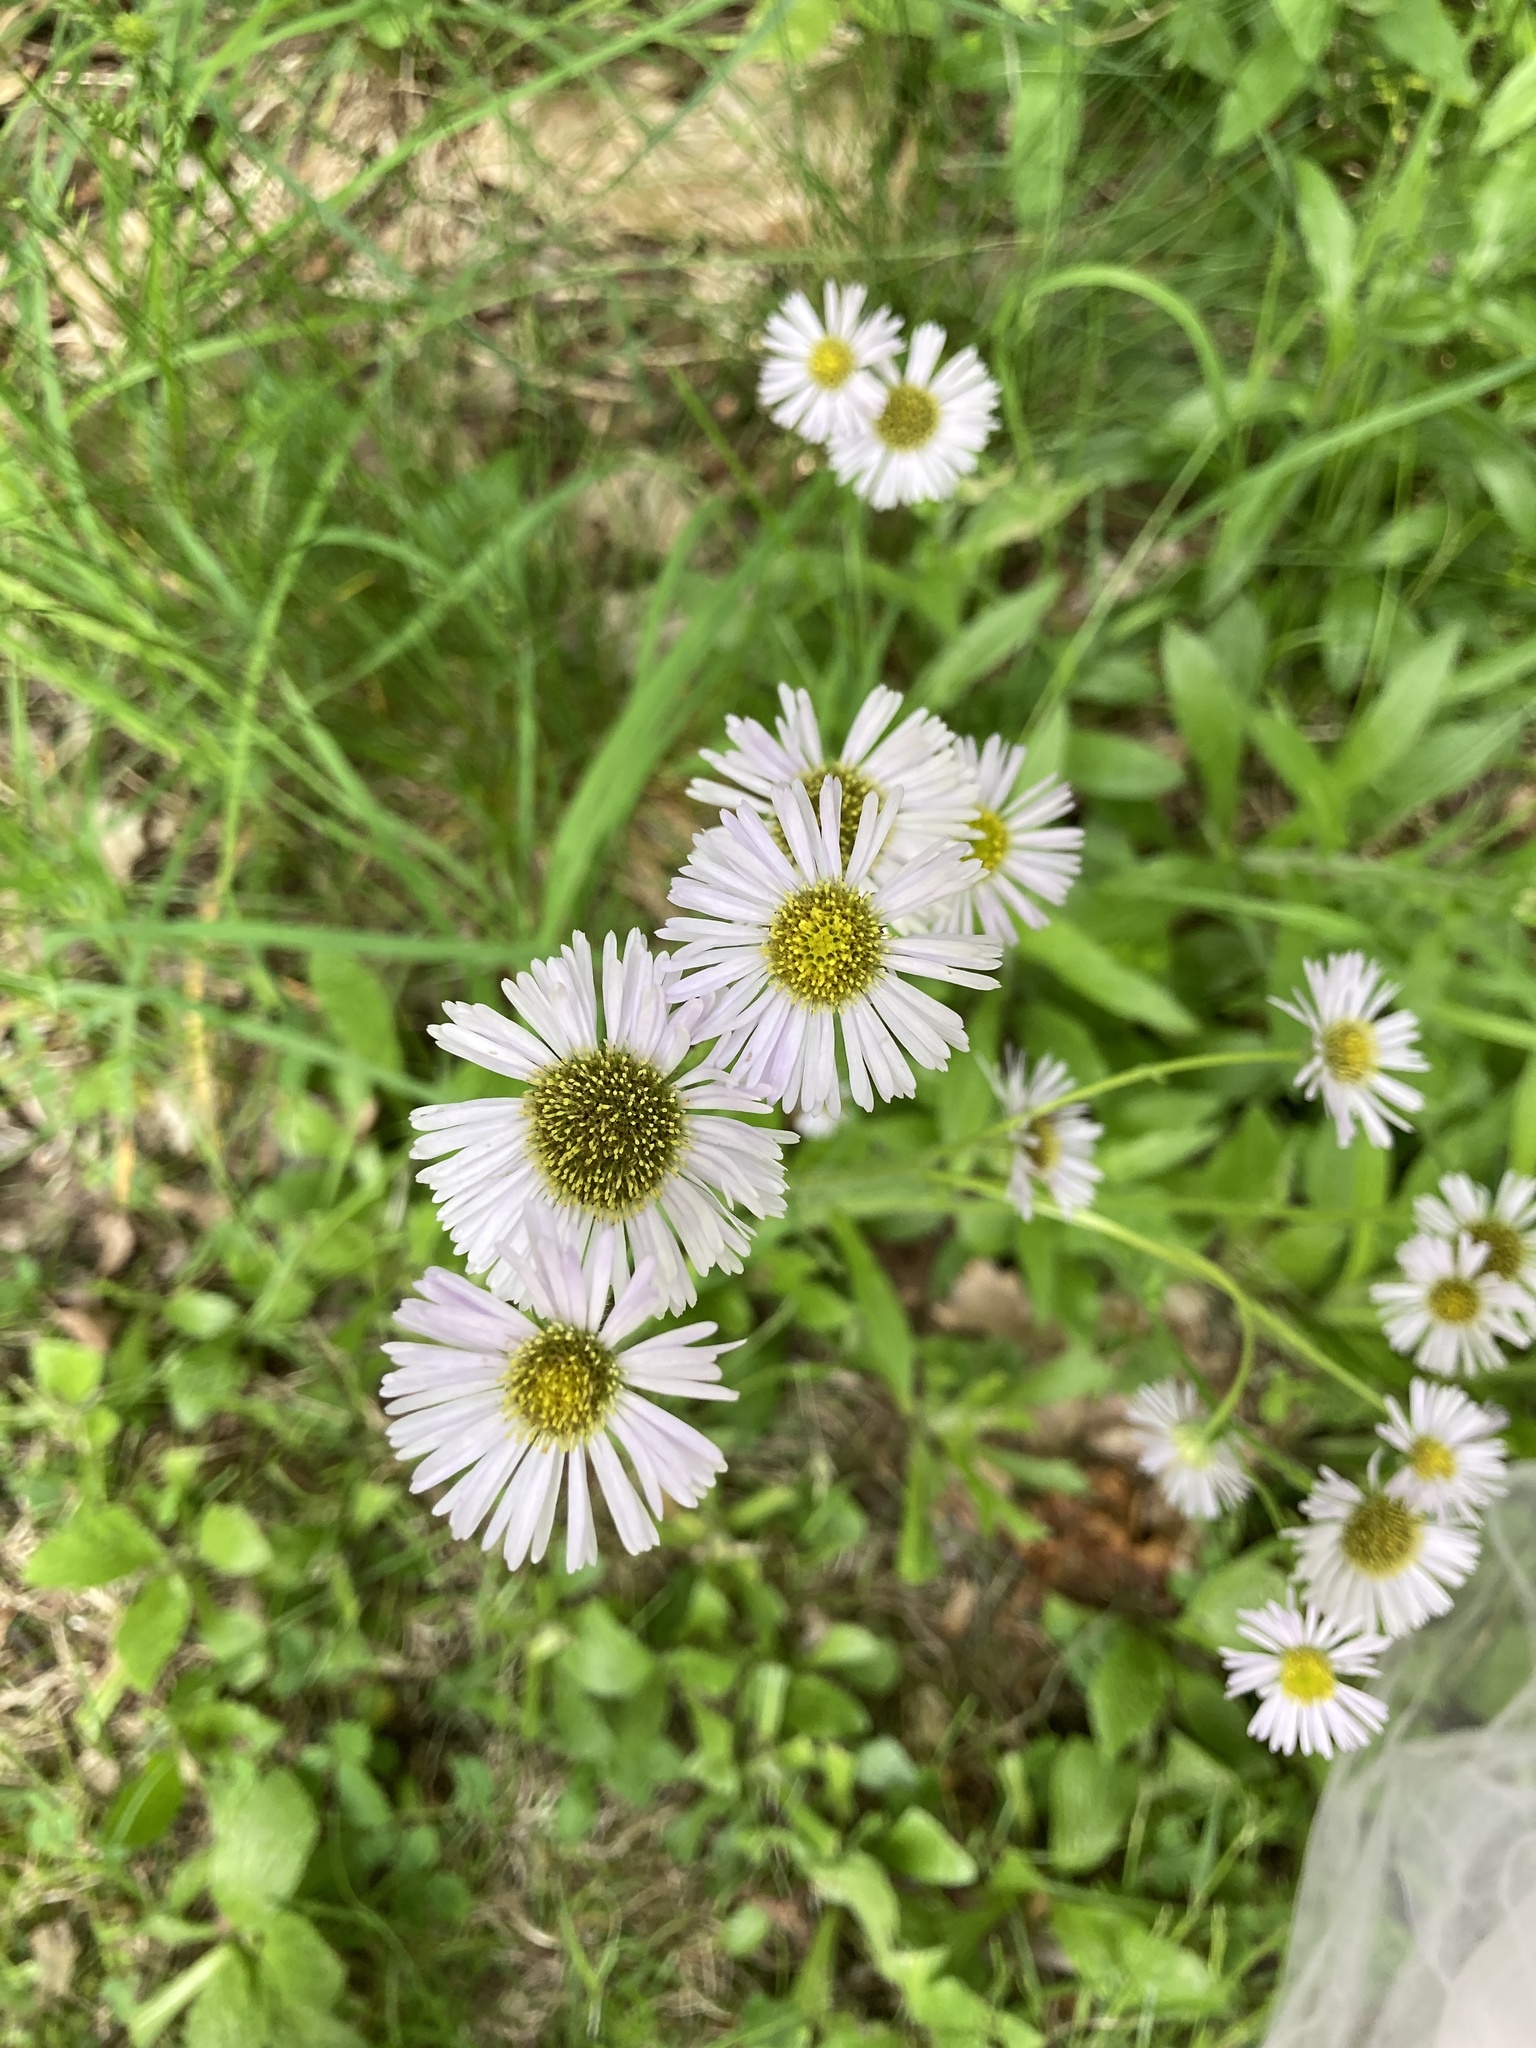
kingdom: Plantae
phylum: Tracheophyta
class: Magnoliopsida
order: Asterales
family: Asteraceae
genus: Erigeron
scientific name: Erigeron pulchellus
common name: Hairy fleabane
